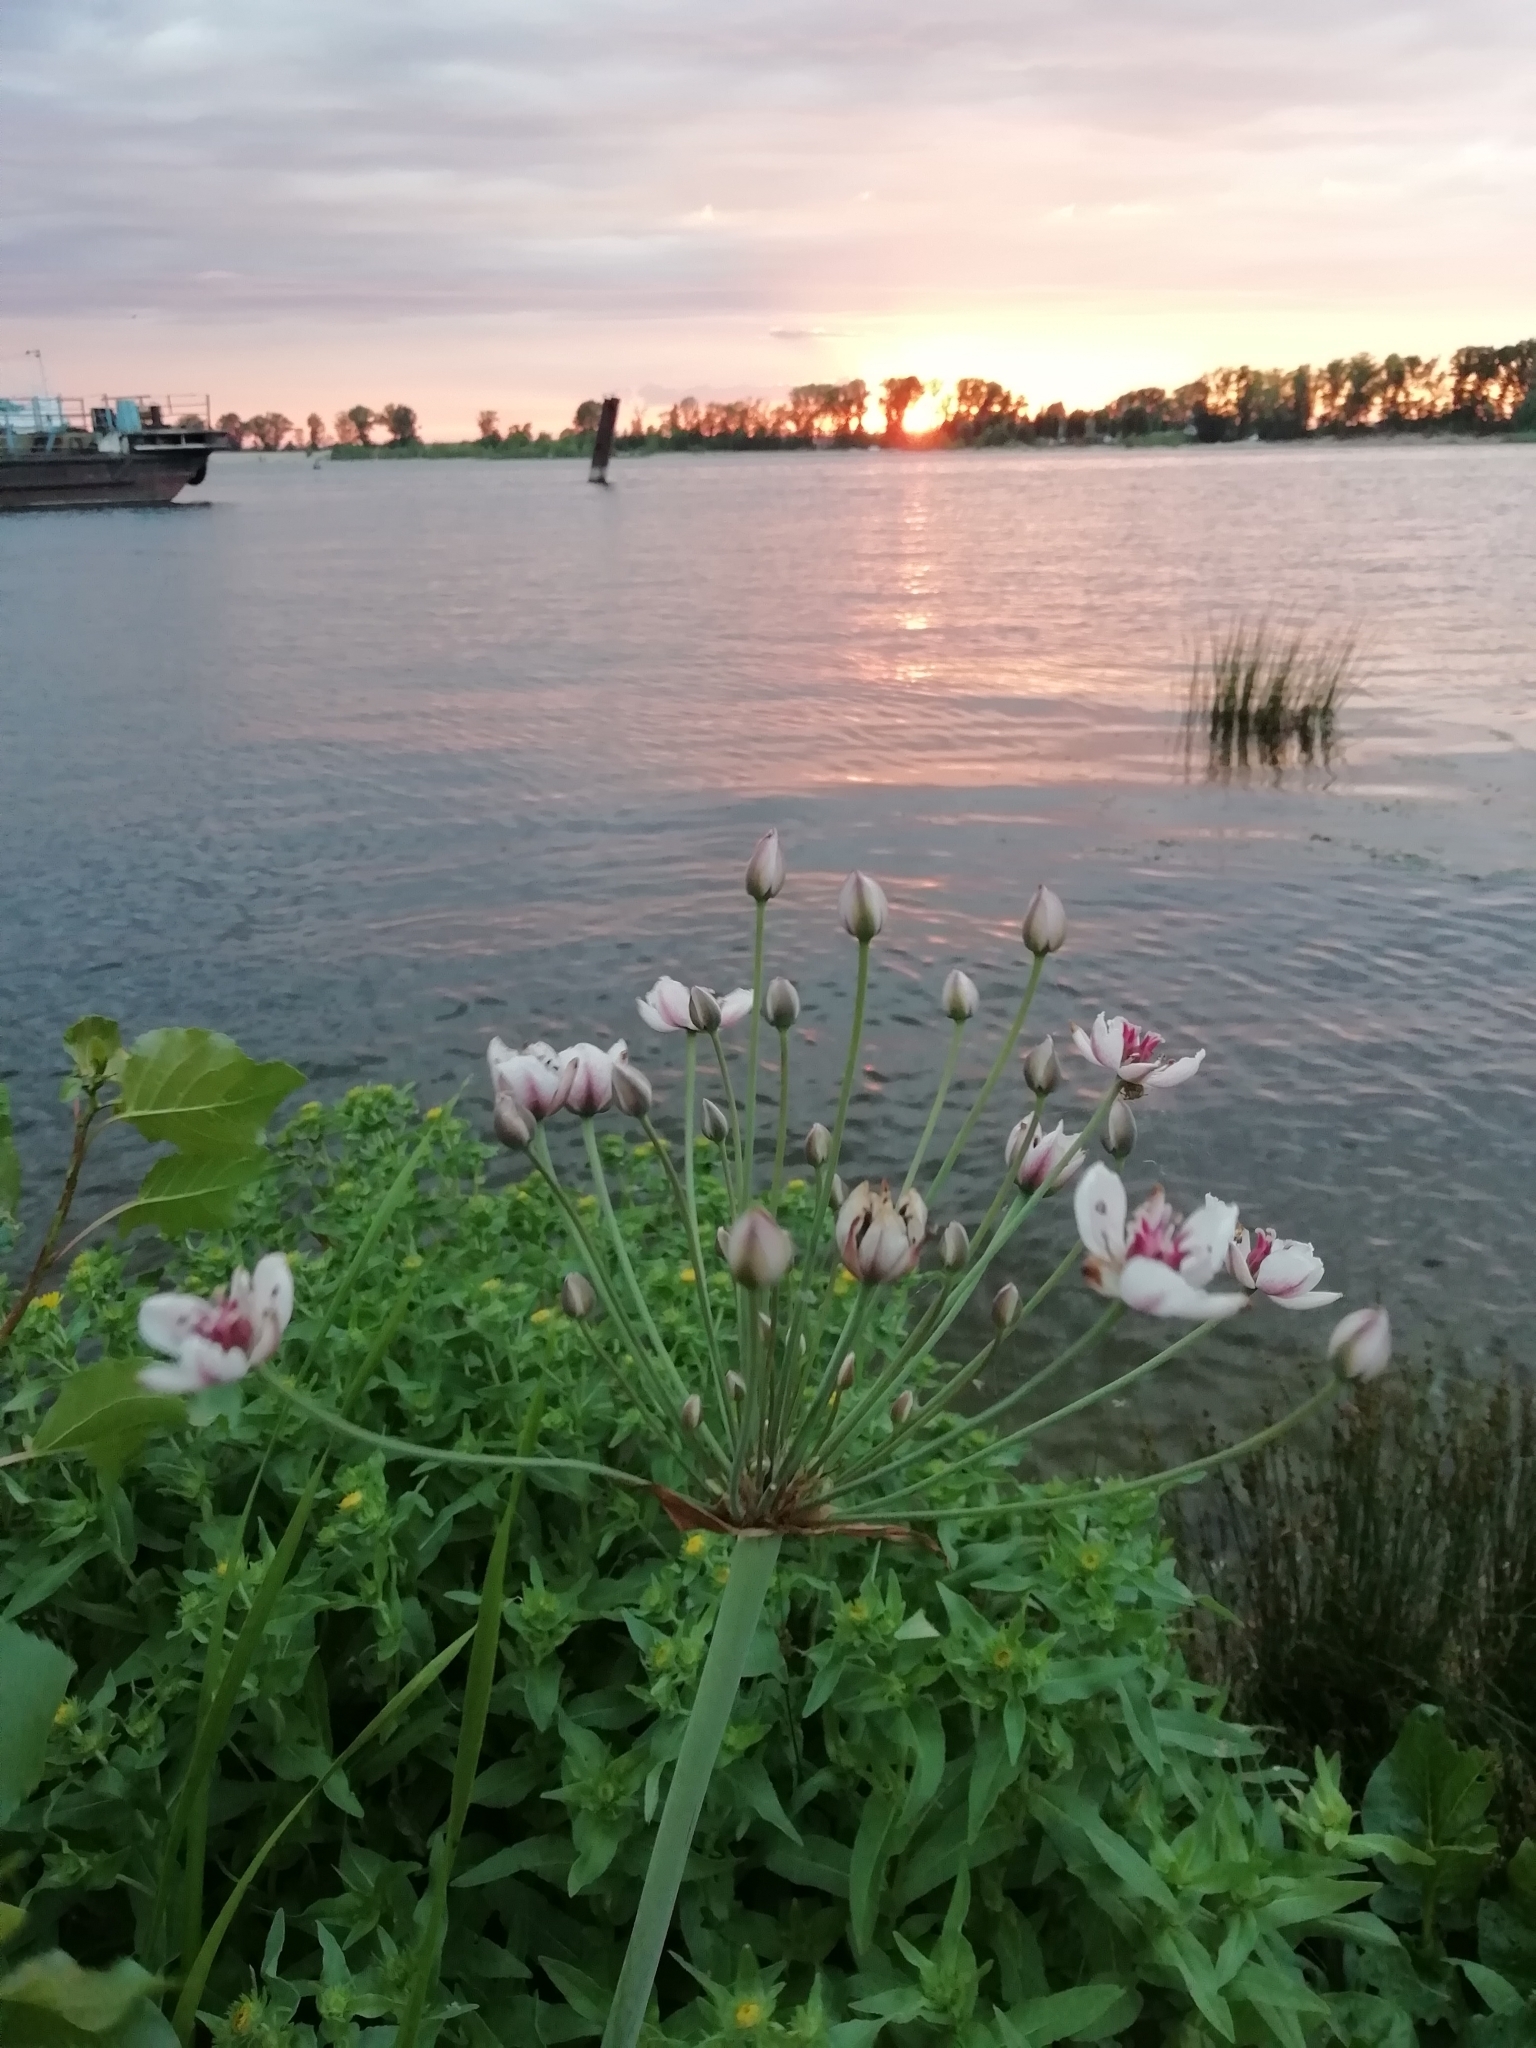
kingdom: Plantae
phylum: Tracheophyta
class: Liliopsida
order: Alismatales
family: Butomaceae
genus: Butomus
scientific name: Butomus umbellatus
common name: Flowering-rush
